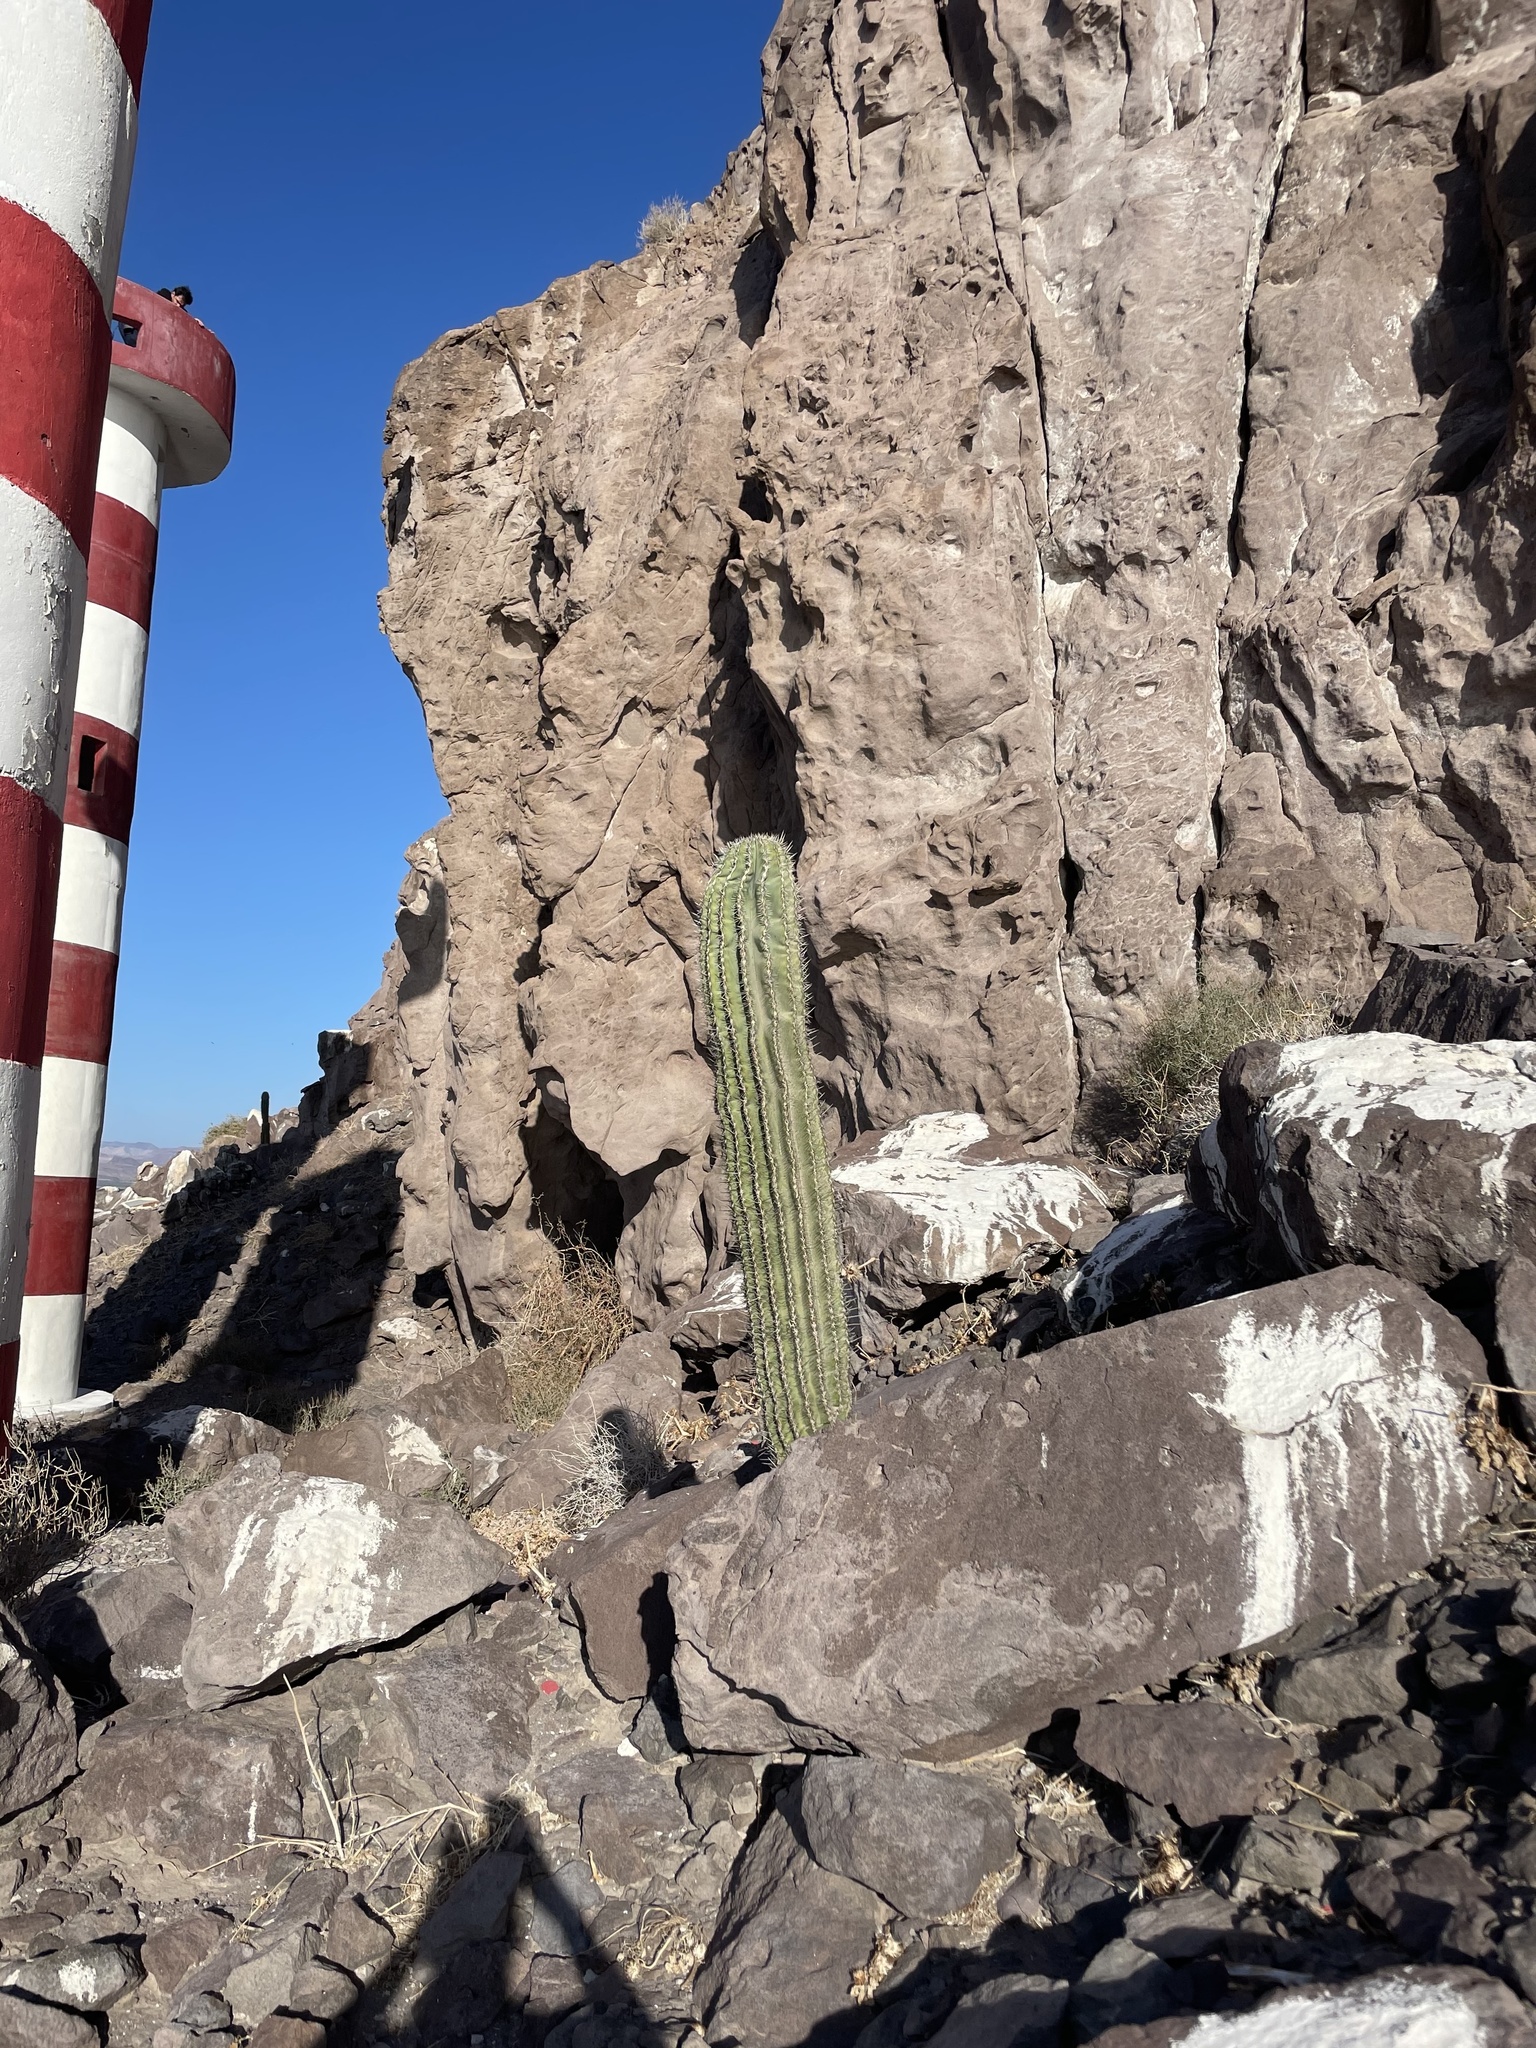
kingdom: Plantae
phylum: Tracheophyta
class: Magnoliopsida
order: Caryophyllales
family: Cactaceae
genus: Pachycereus
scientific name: Pachycereus pringlei
